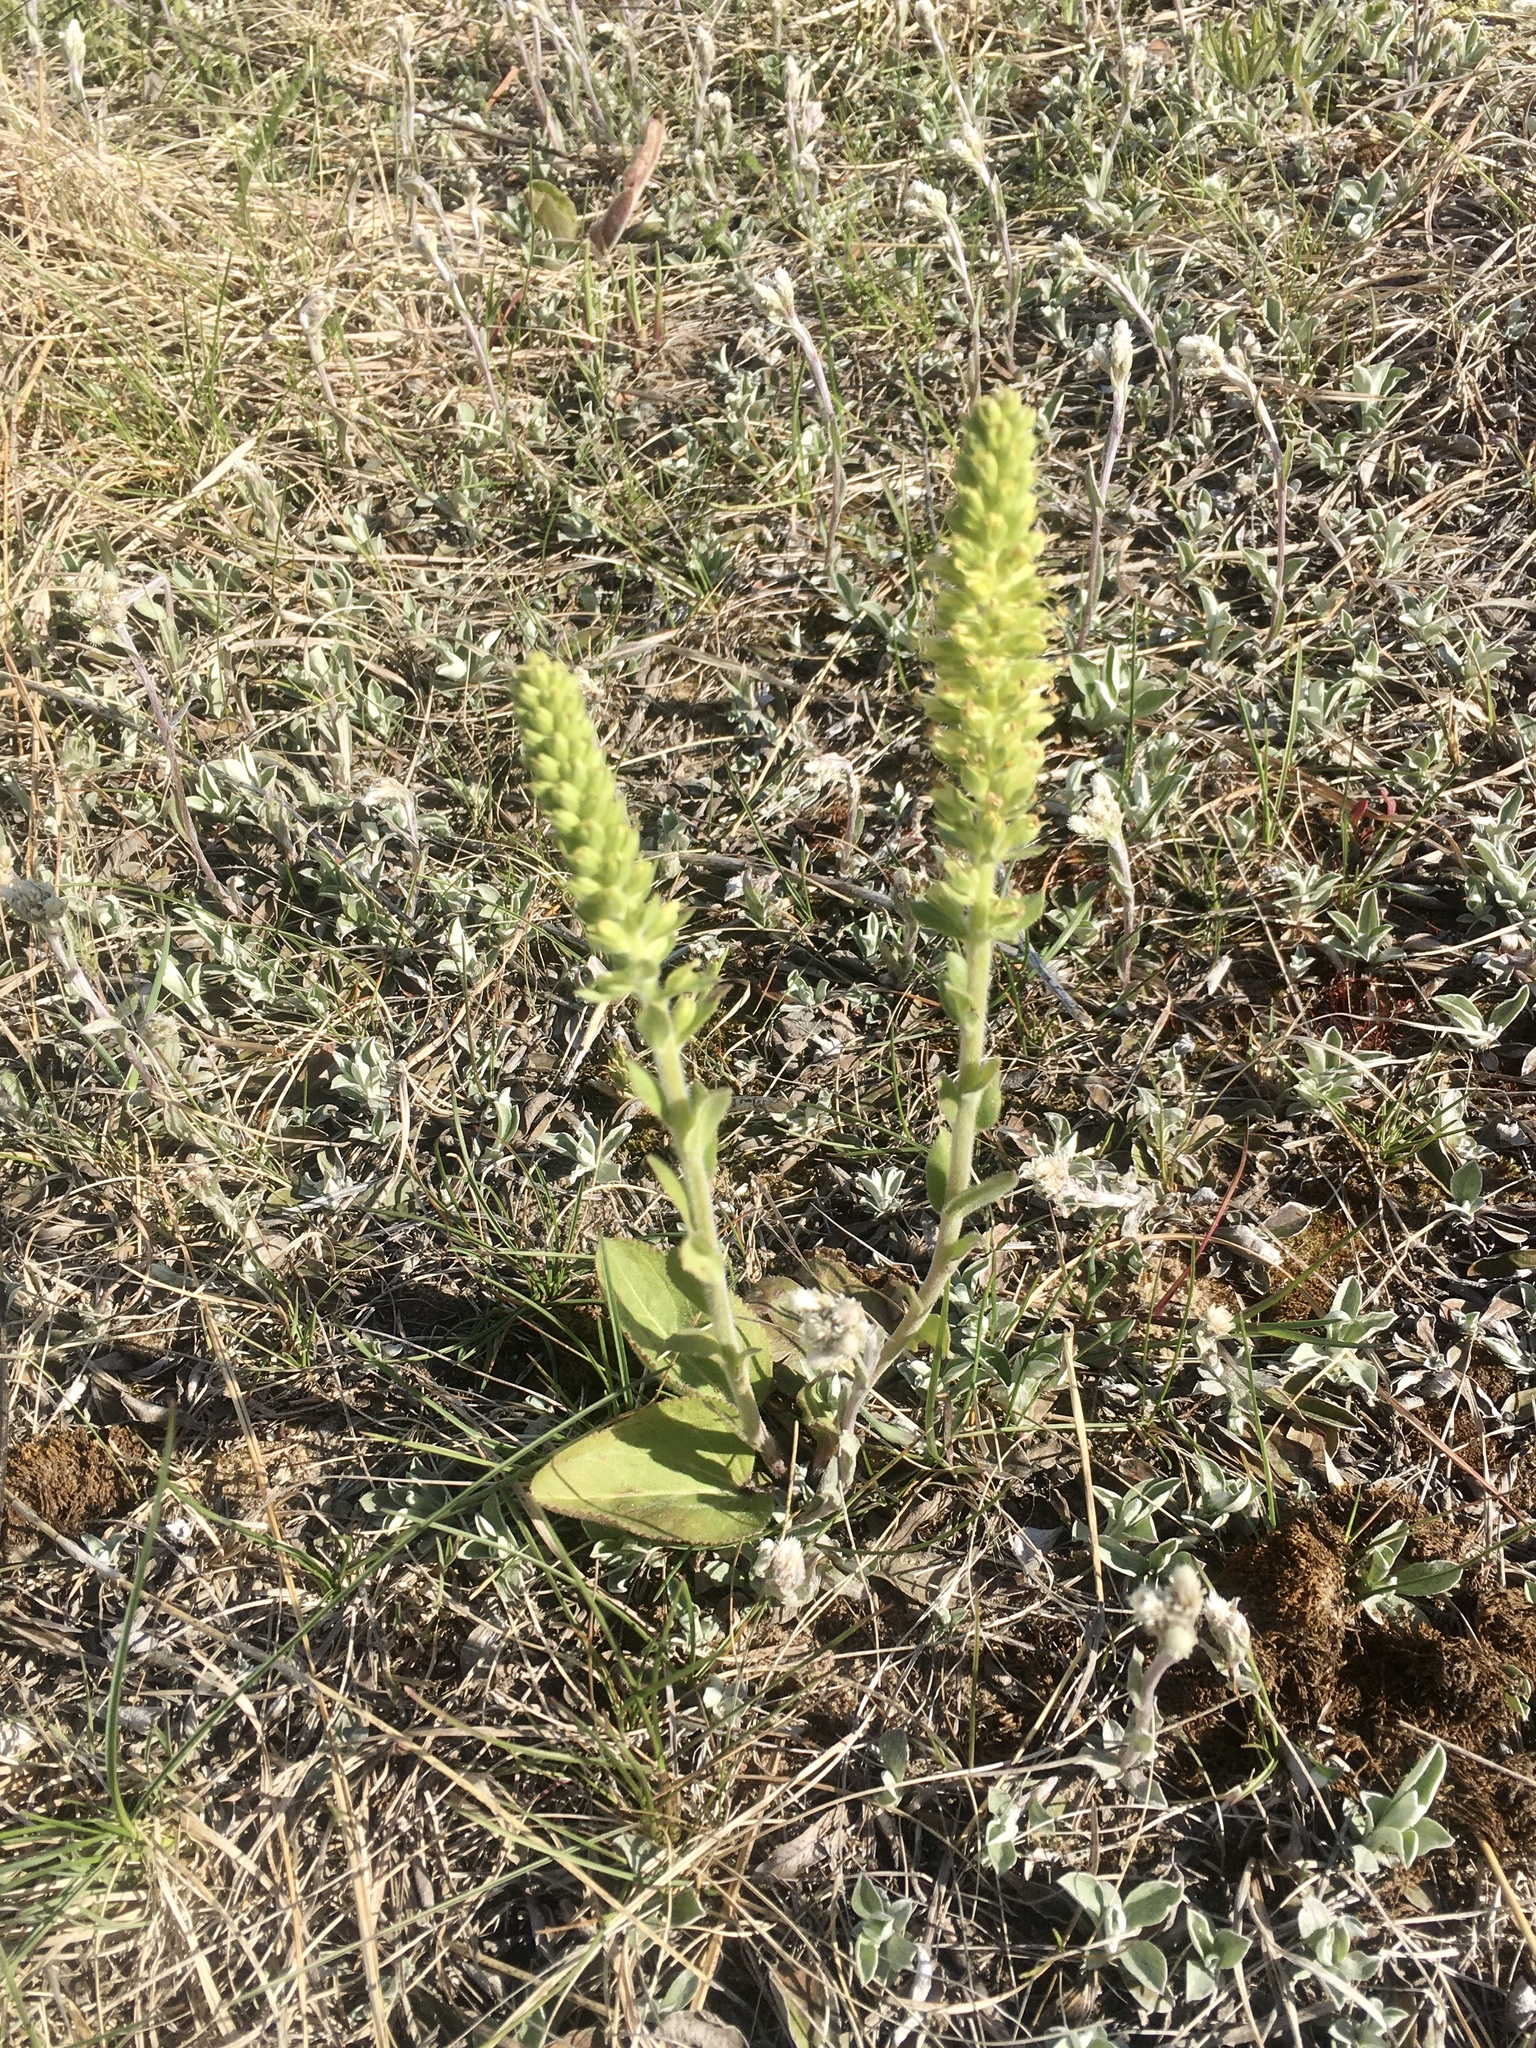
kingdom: Plantae
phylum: Tracheophyta
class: Magnoliopsida
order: Lamiales
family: Plantaginaceae
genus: Synthyris
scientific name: Synthyris bullii
